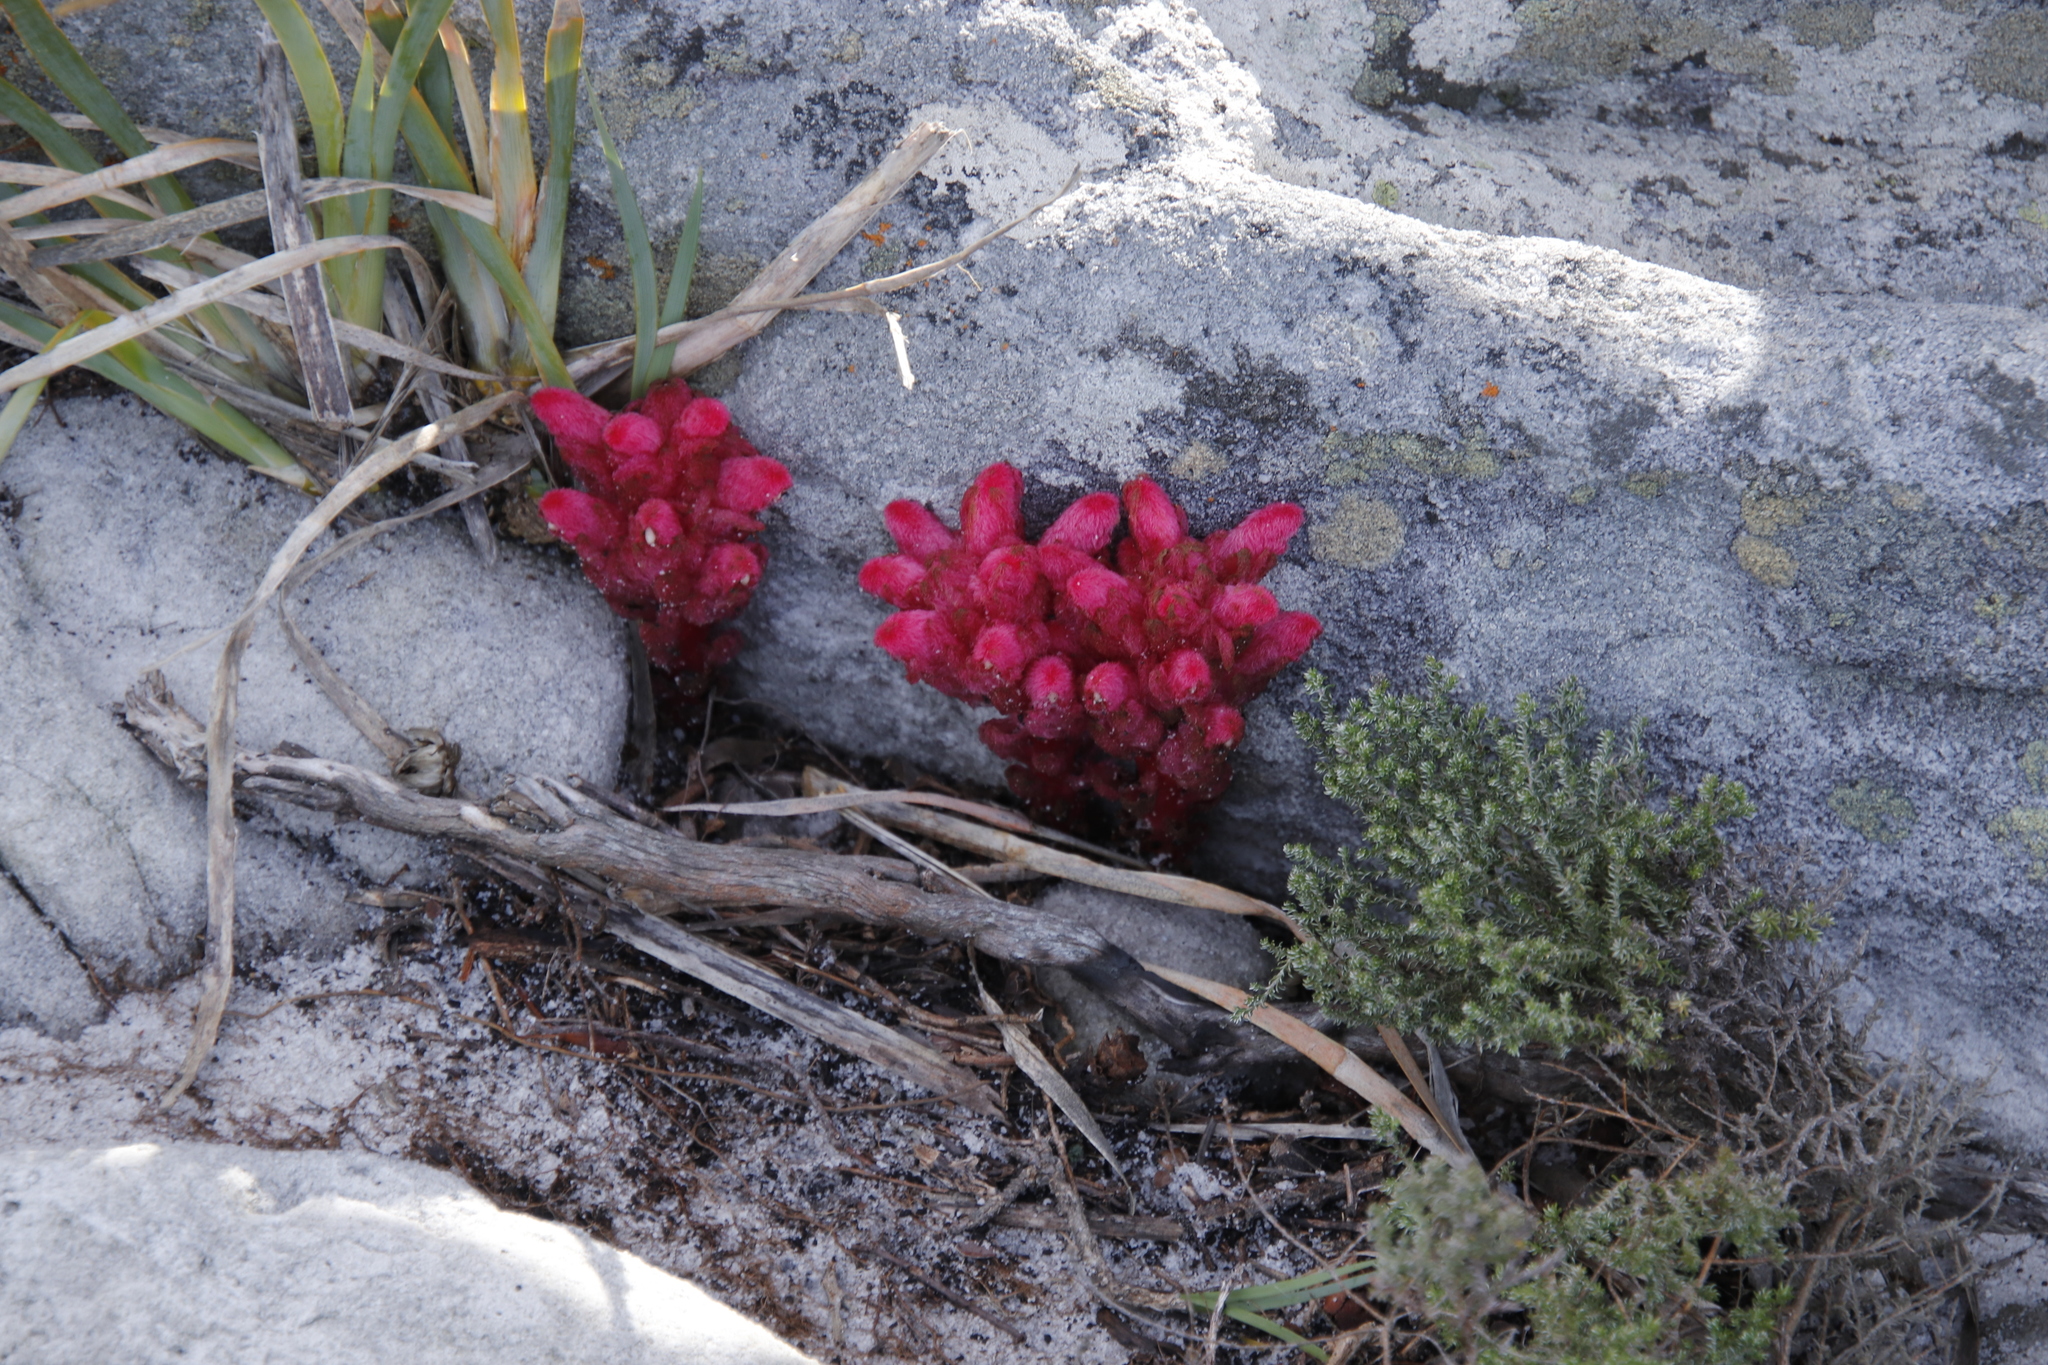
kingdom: Plantae
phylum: Tracheophyta
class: Magnoliopsida
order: Lamiales
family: Orobanchaceae
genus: Hyobanche
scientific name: Hyobanche sanguinea
